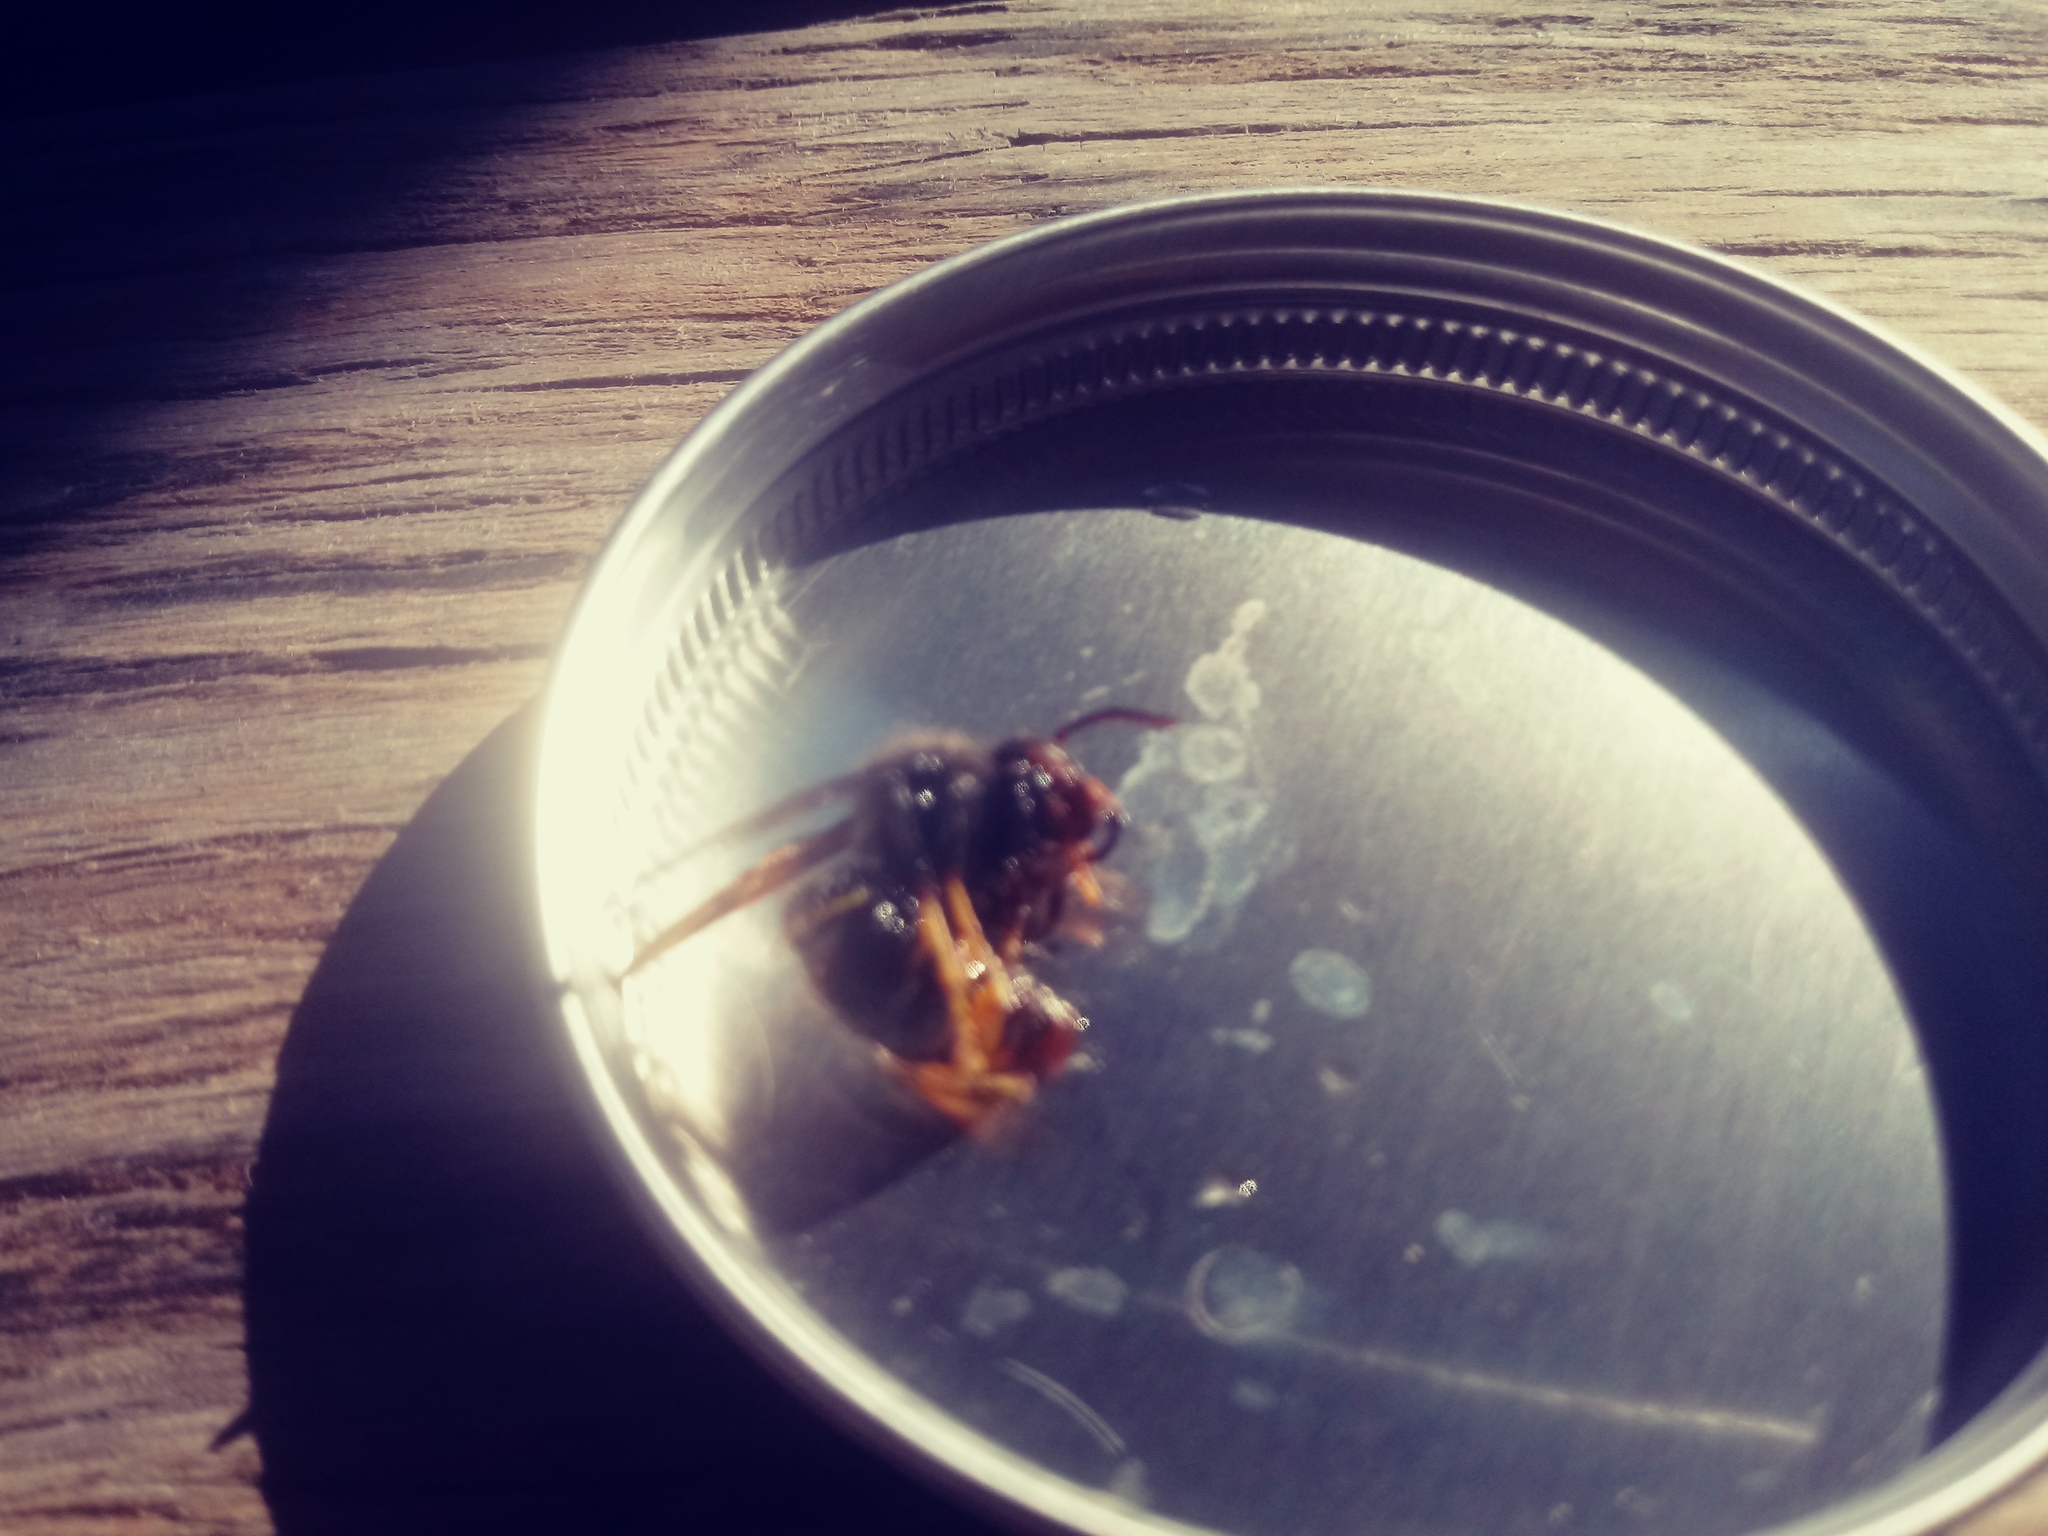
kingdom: Animalia
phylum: Arthropoda
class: Insecta
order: Hymenoptera
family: Vespidae
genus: Vespa
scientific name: Vespa velutina
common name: Asian hornet
